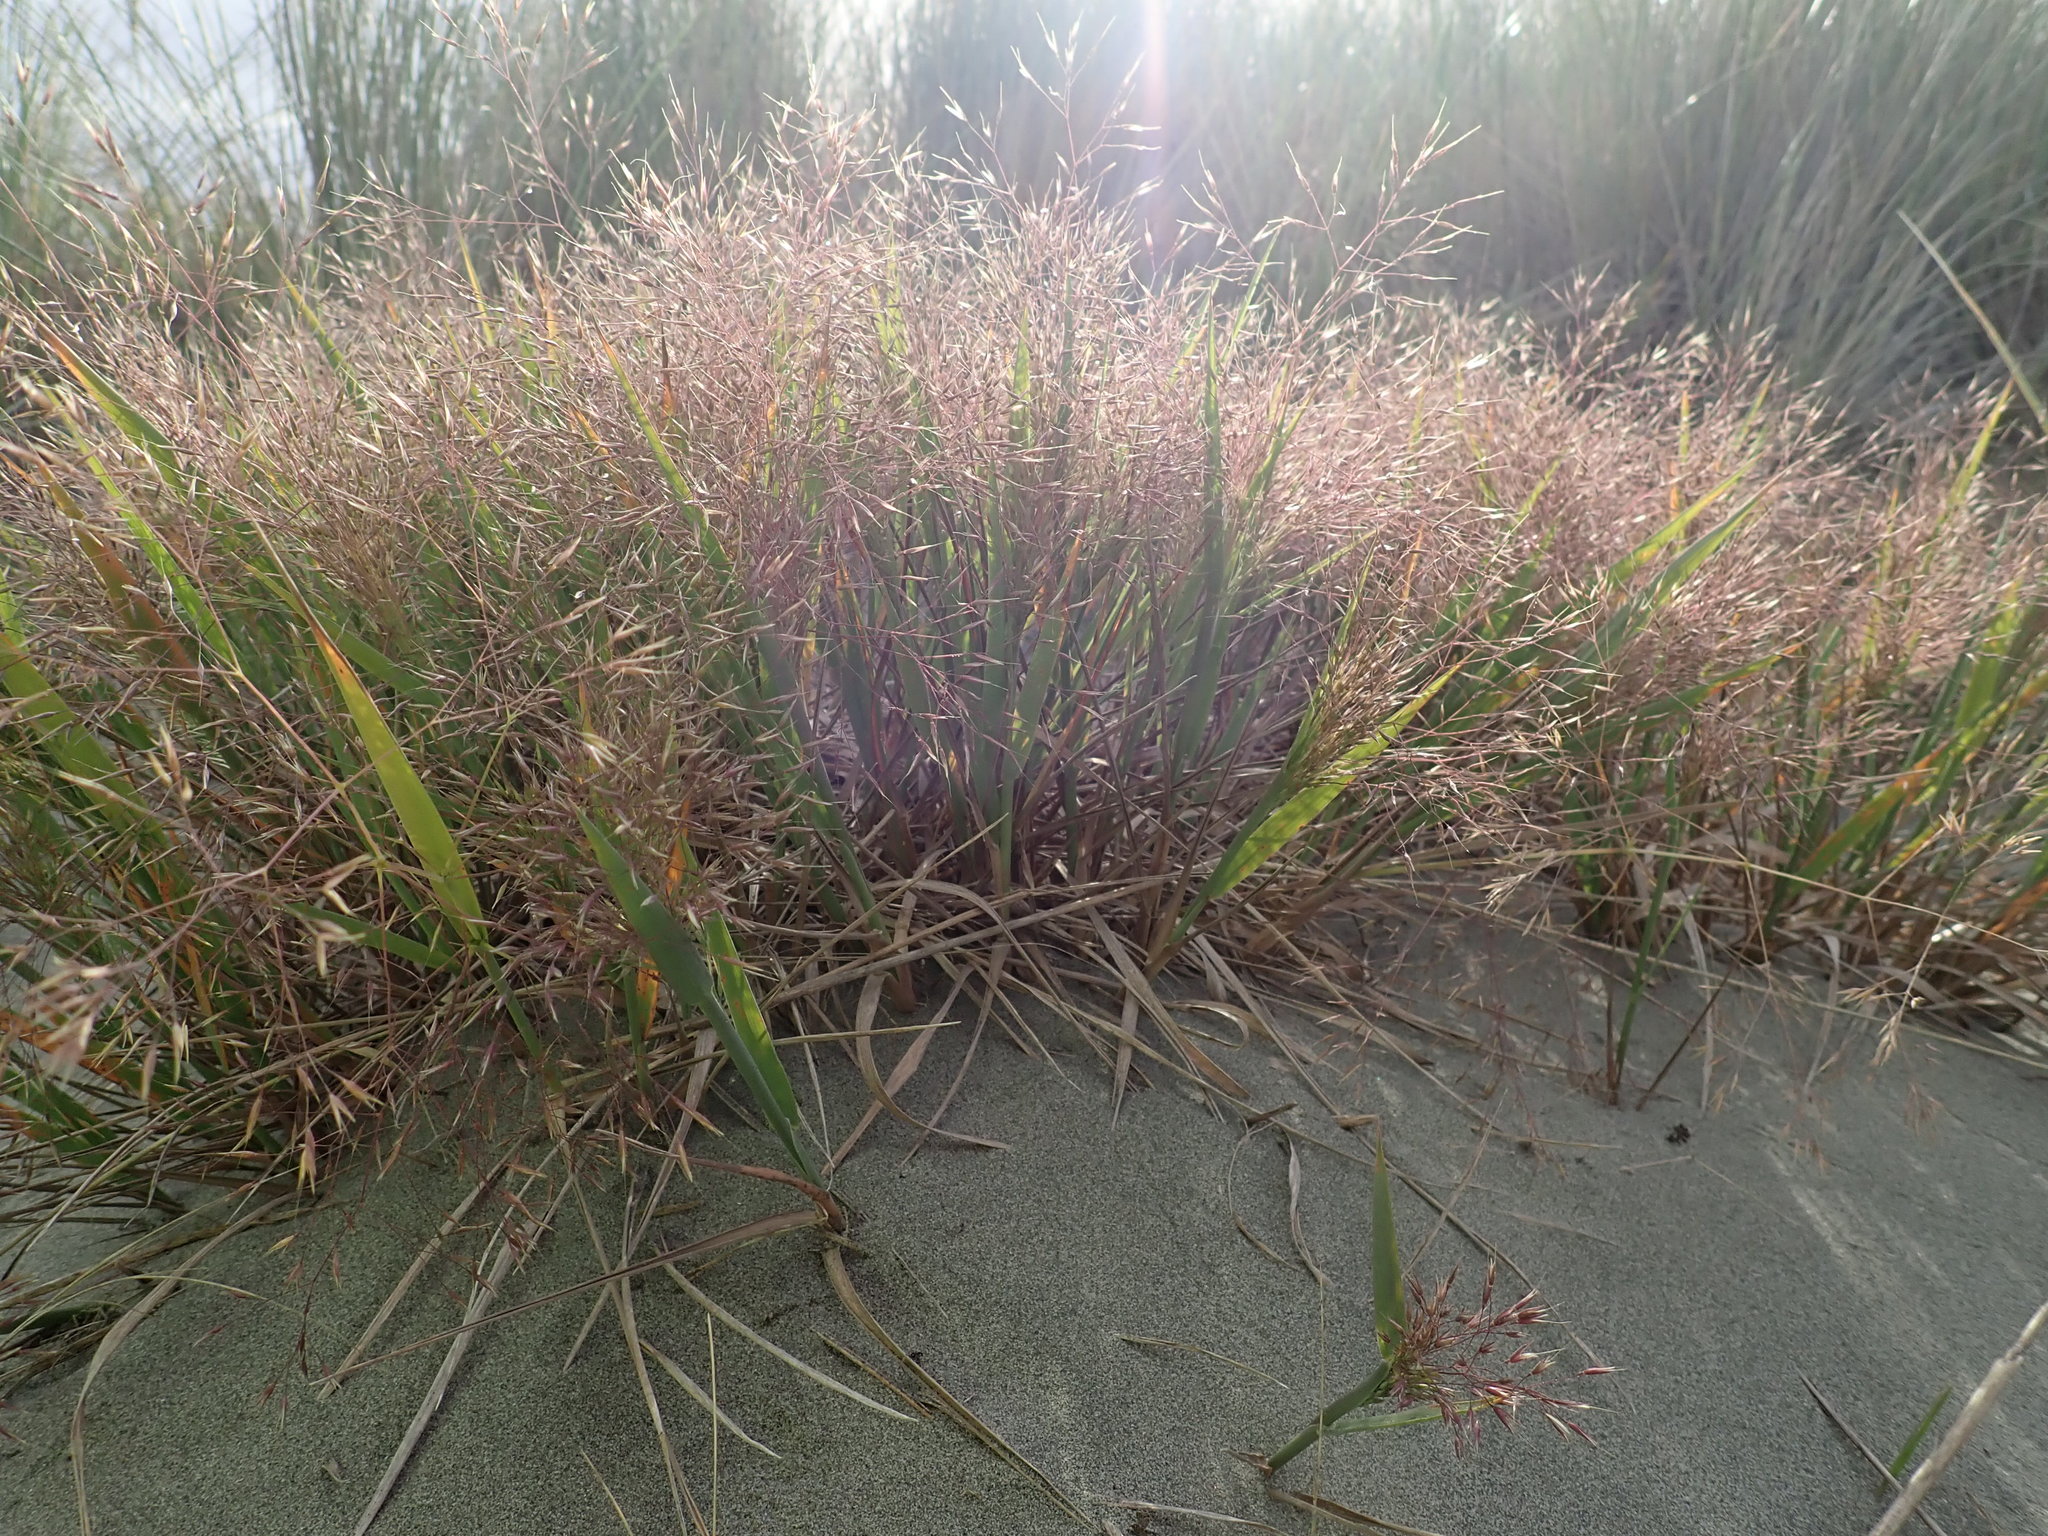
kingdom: Plantae
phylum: Tracheophyta
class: Liliopsida
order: Poales
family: Poaceae
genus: Lachnagrostis
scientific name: Lachnagrostis billardierei
